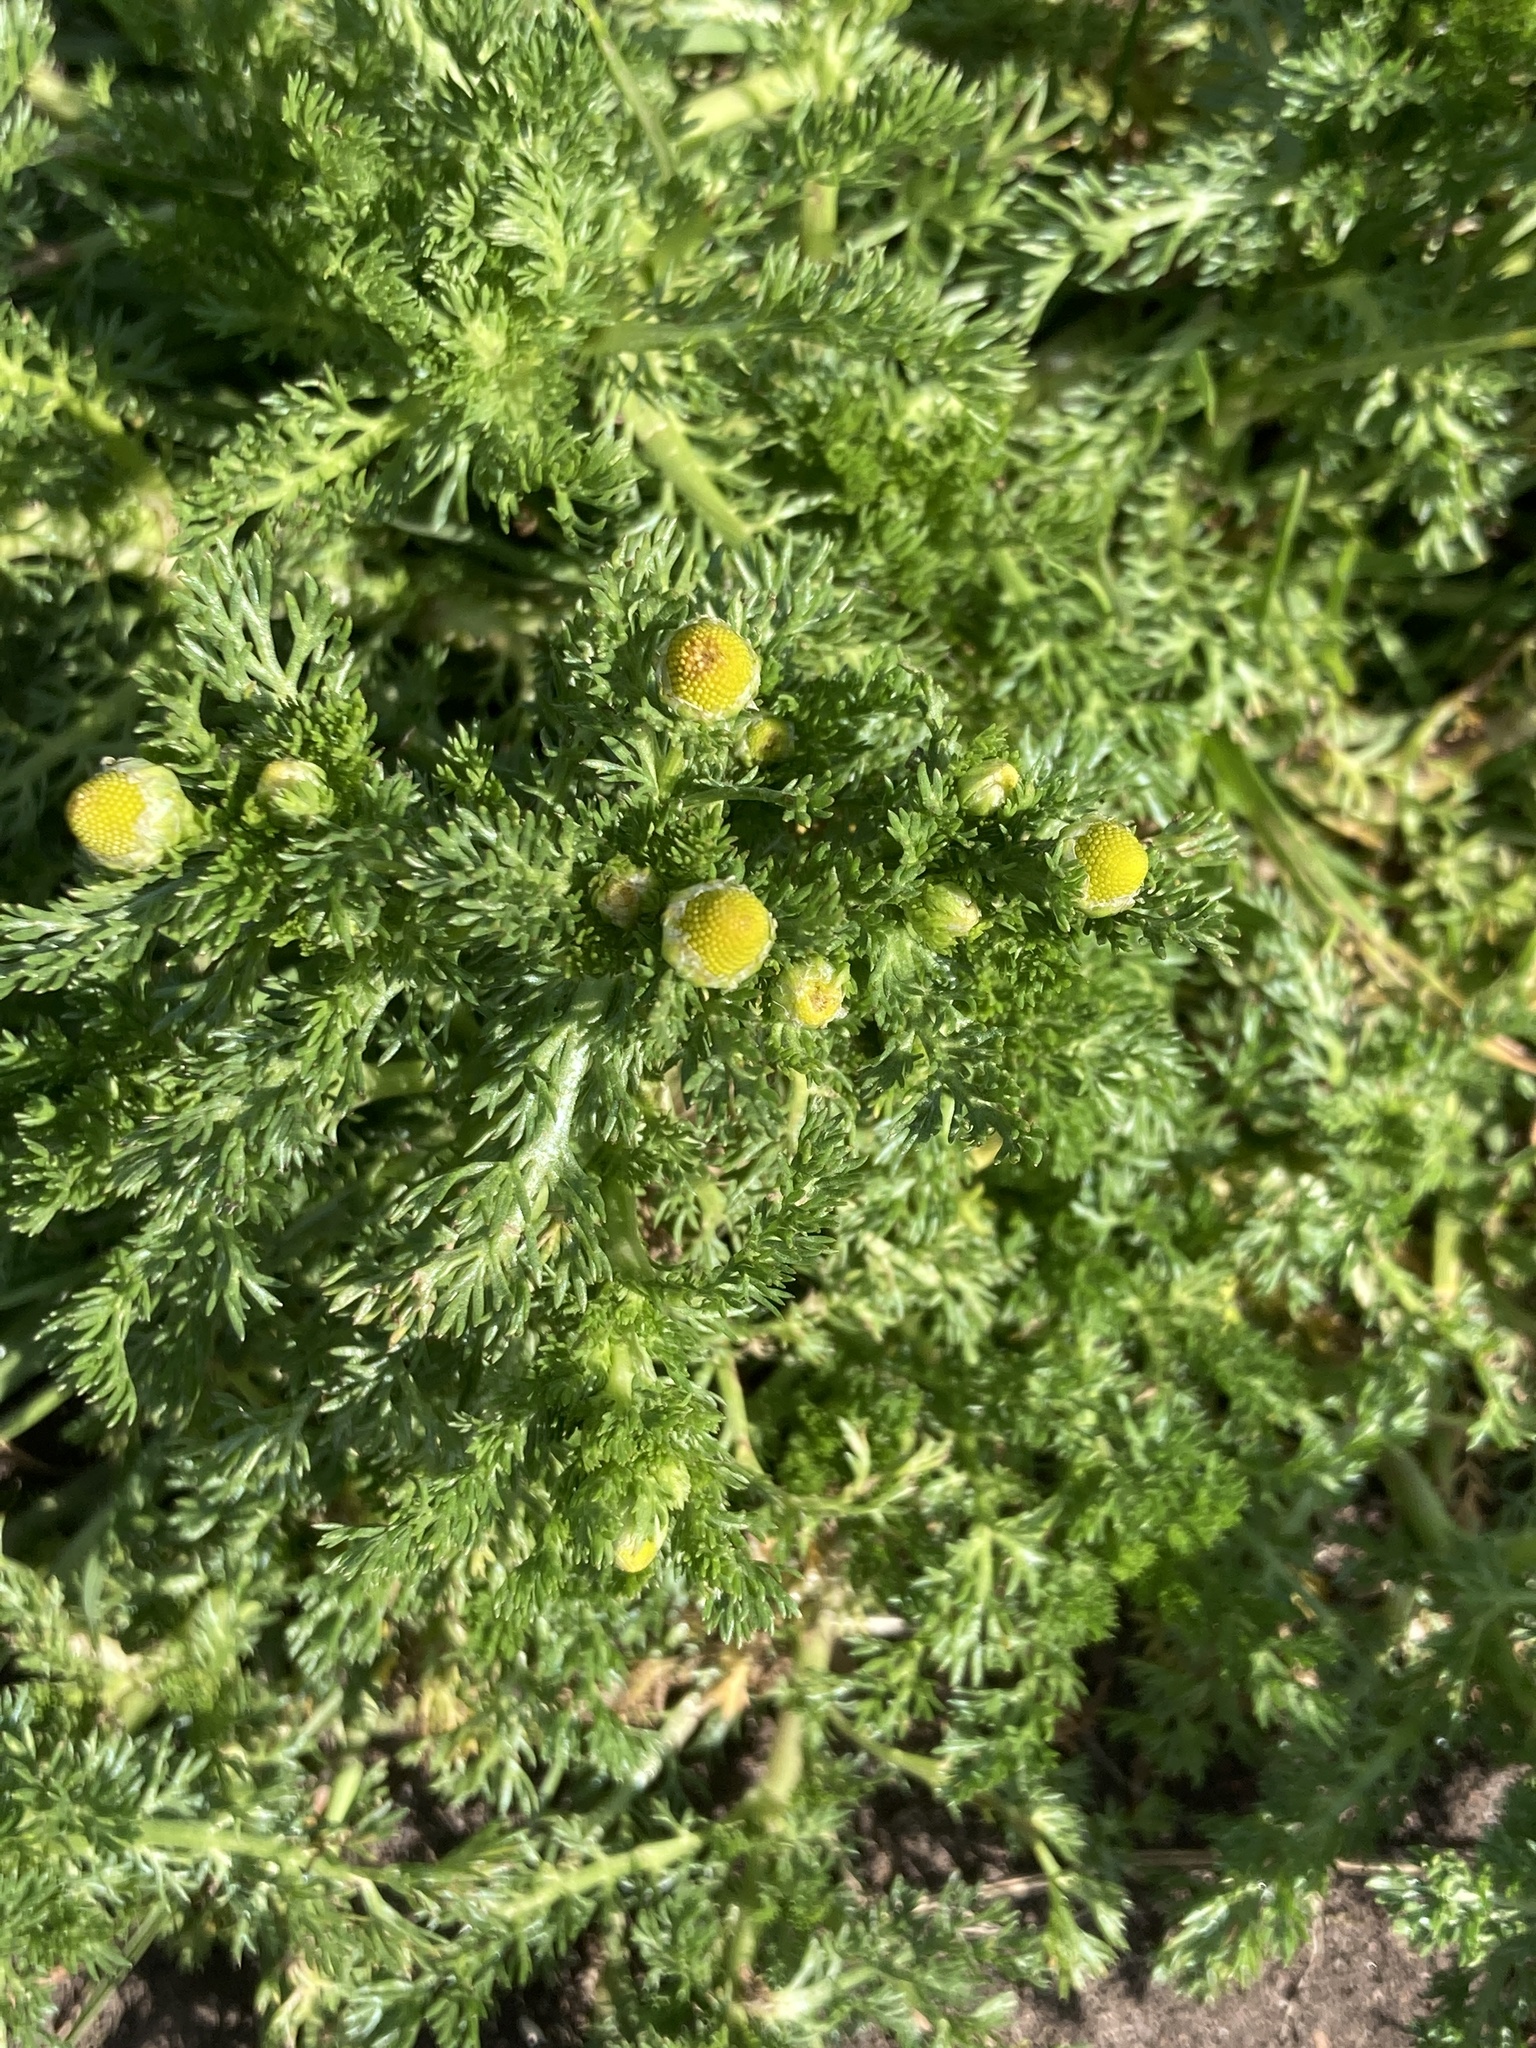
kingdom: Plantae
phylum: Tracheophyta
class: Magnoliopsida
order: Asterales
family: Asteraceae
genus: Matricaria
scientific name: Matricaria discoidea
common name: Disc mayweed
